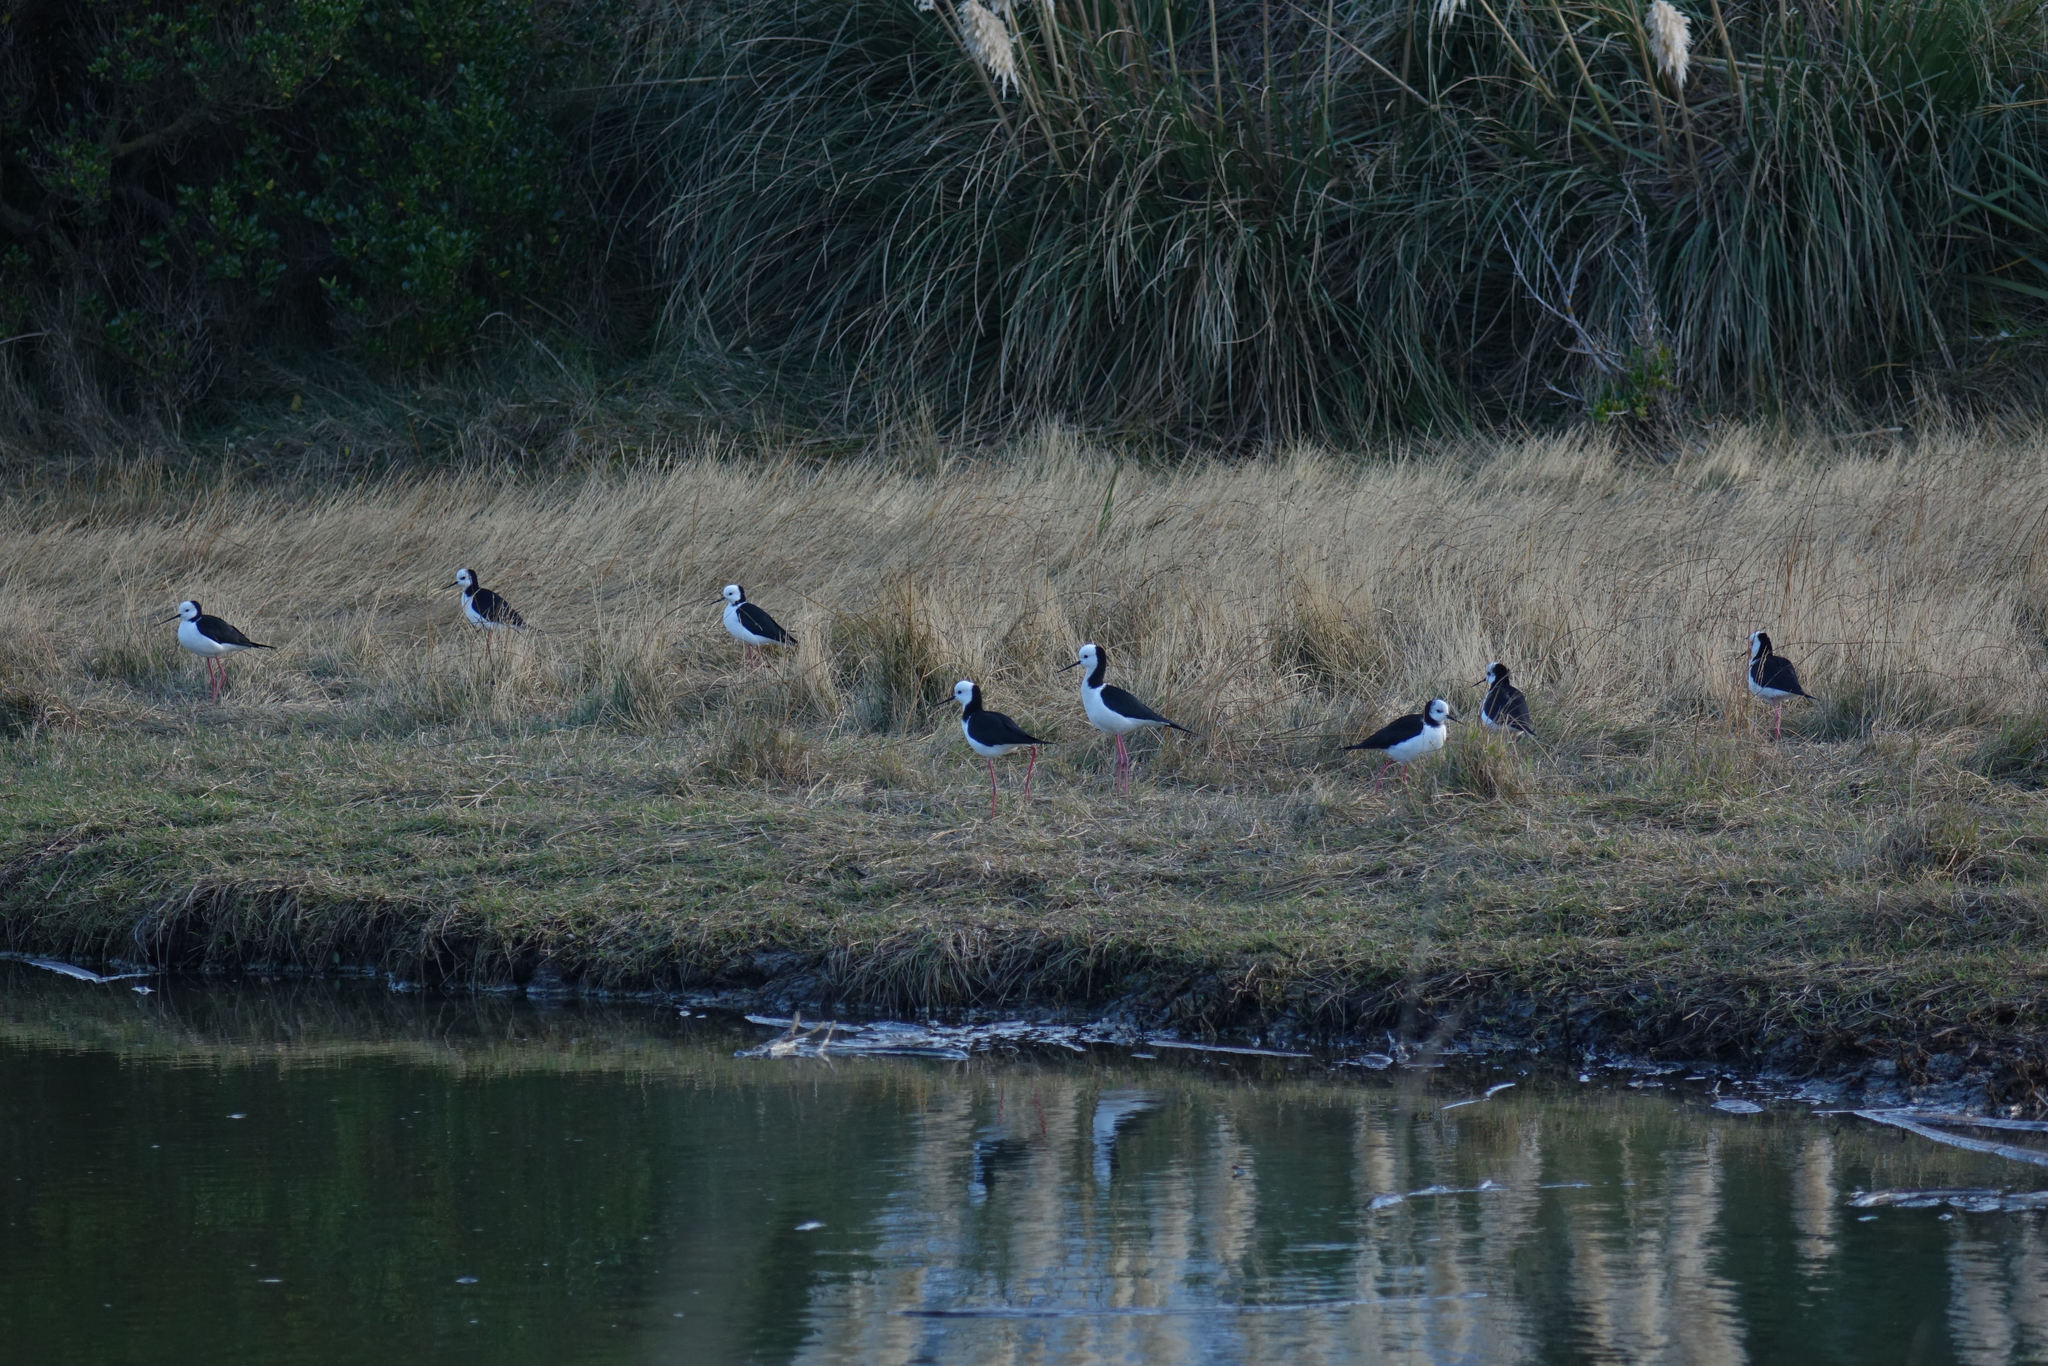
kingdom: Animalia
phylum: Chordata
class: Aves
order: Charadriiformes
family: Recurvirostridae
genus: Himantopus
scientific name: Himantopus leucocephalus
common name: White-headed stilt
